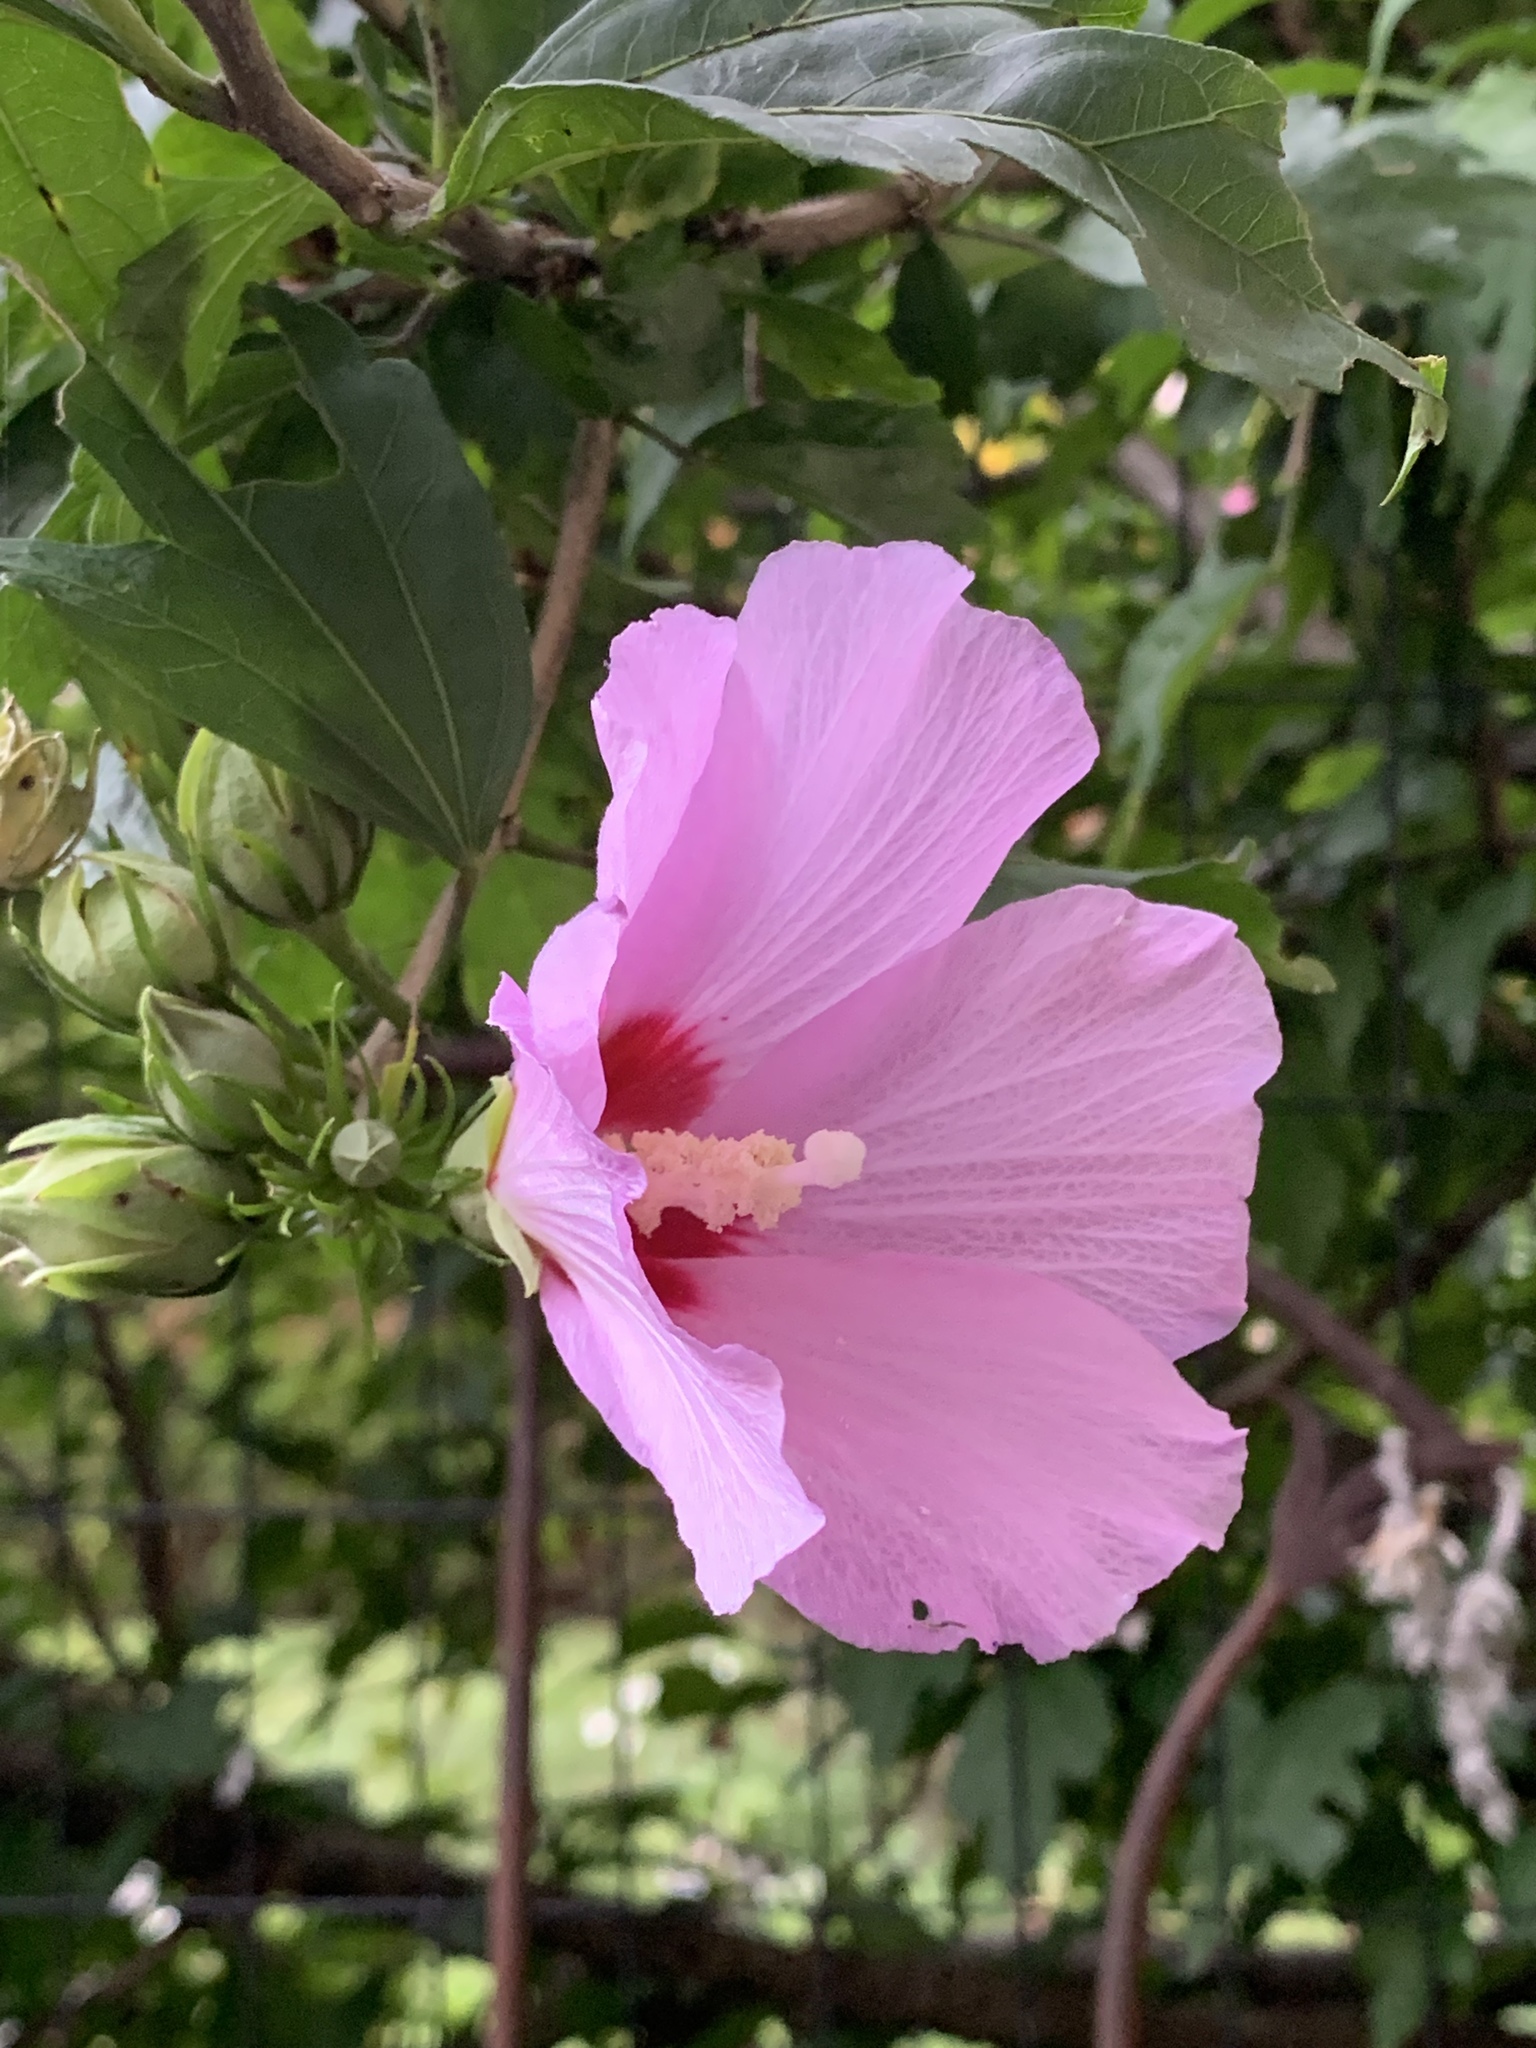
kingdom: Plantae
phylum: Tracheophyta
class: Magnoliopsida
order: Malvales
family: Malvaceae
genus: Hibiscus
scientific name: Hibiscus syriacus
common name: Syrian ketmia
